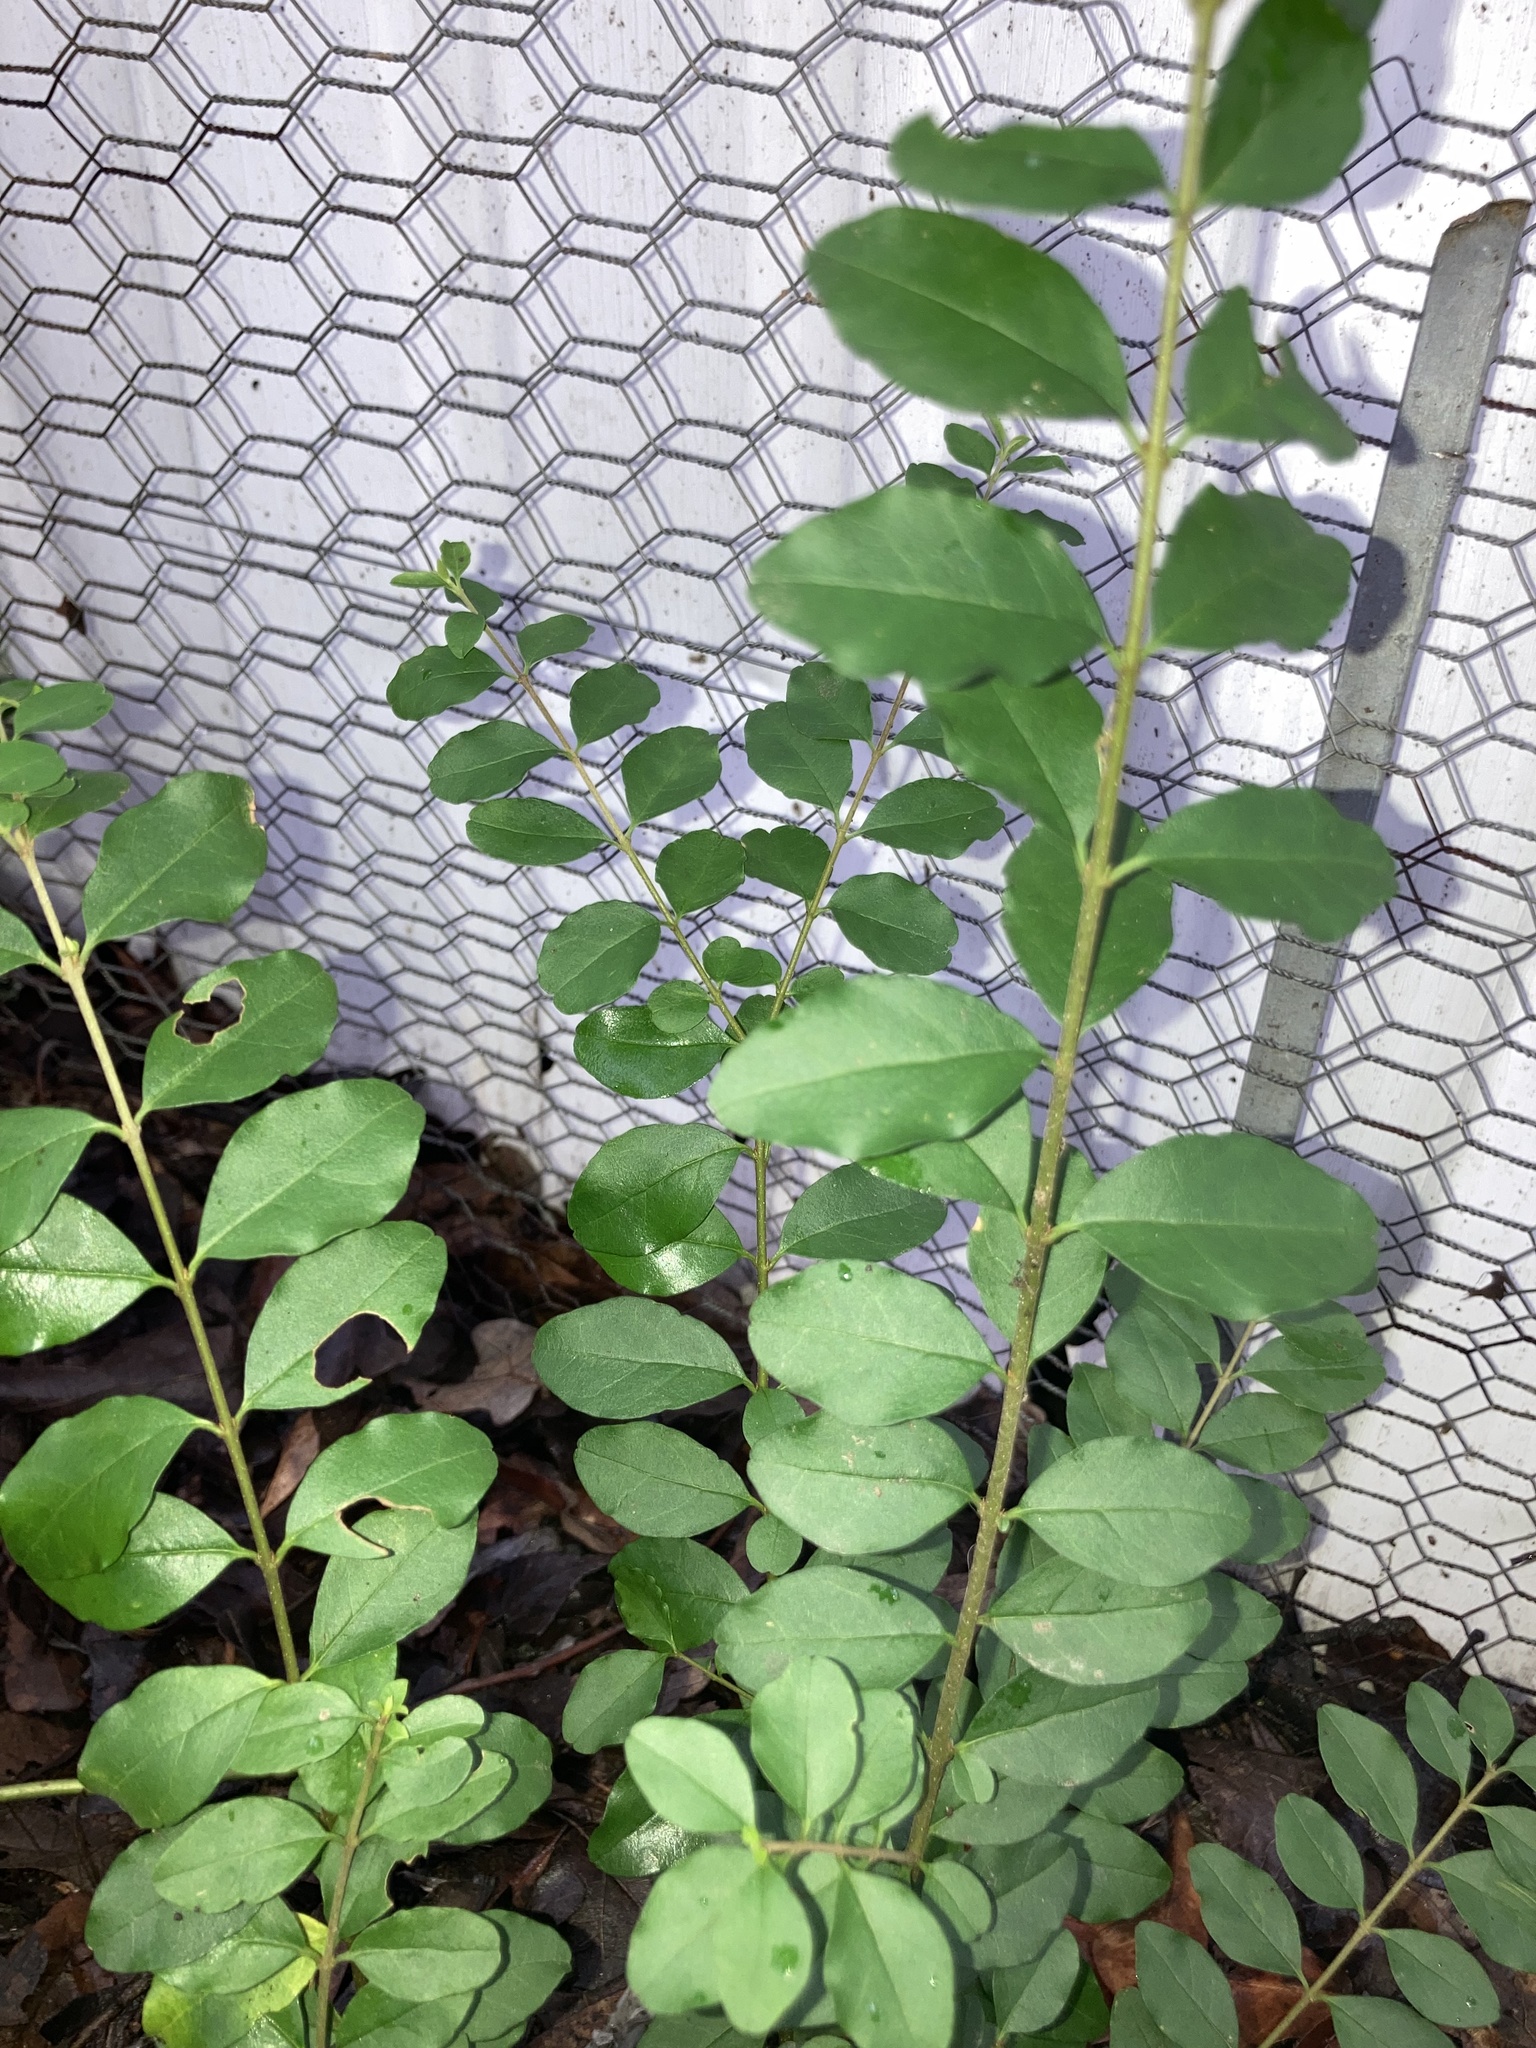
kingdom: Plantae
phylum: Tracheophyta
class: Magnoliopsida
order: Lamiales
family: Oleaceae
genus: Ligustrum
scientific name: Ligustrum sinense
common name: Chinese privet
